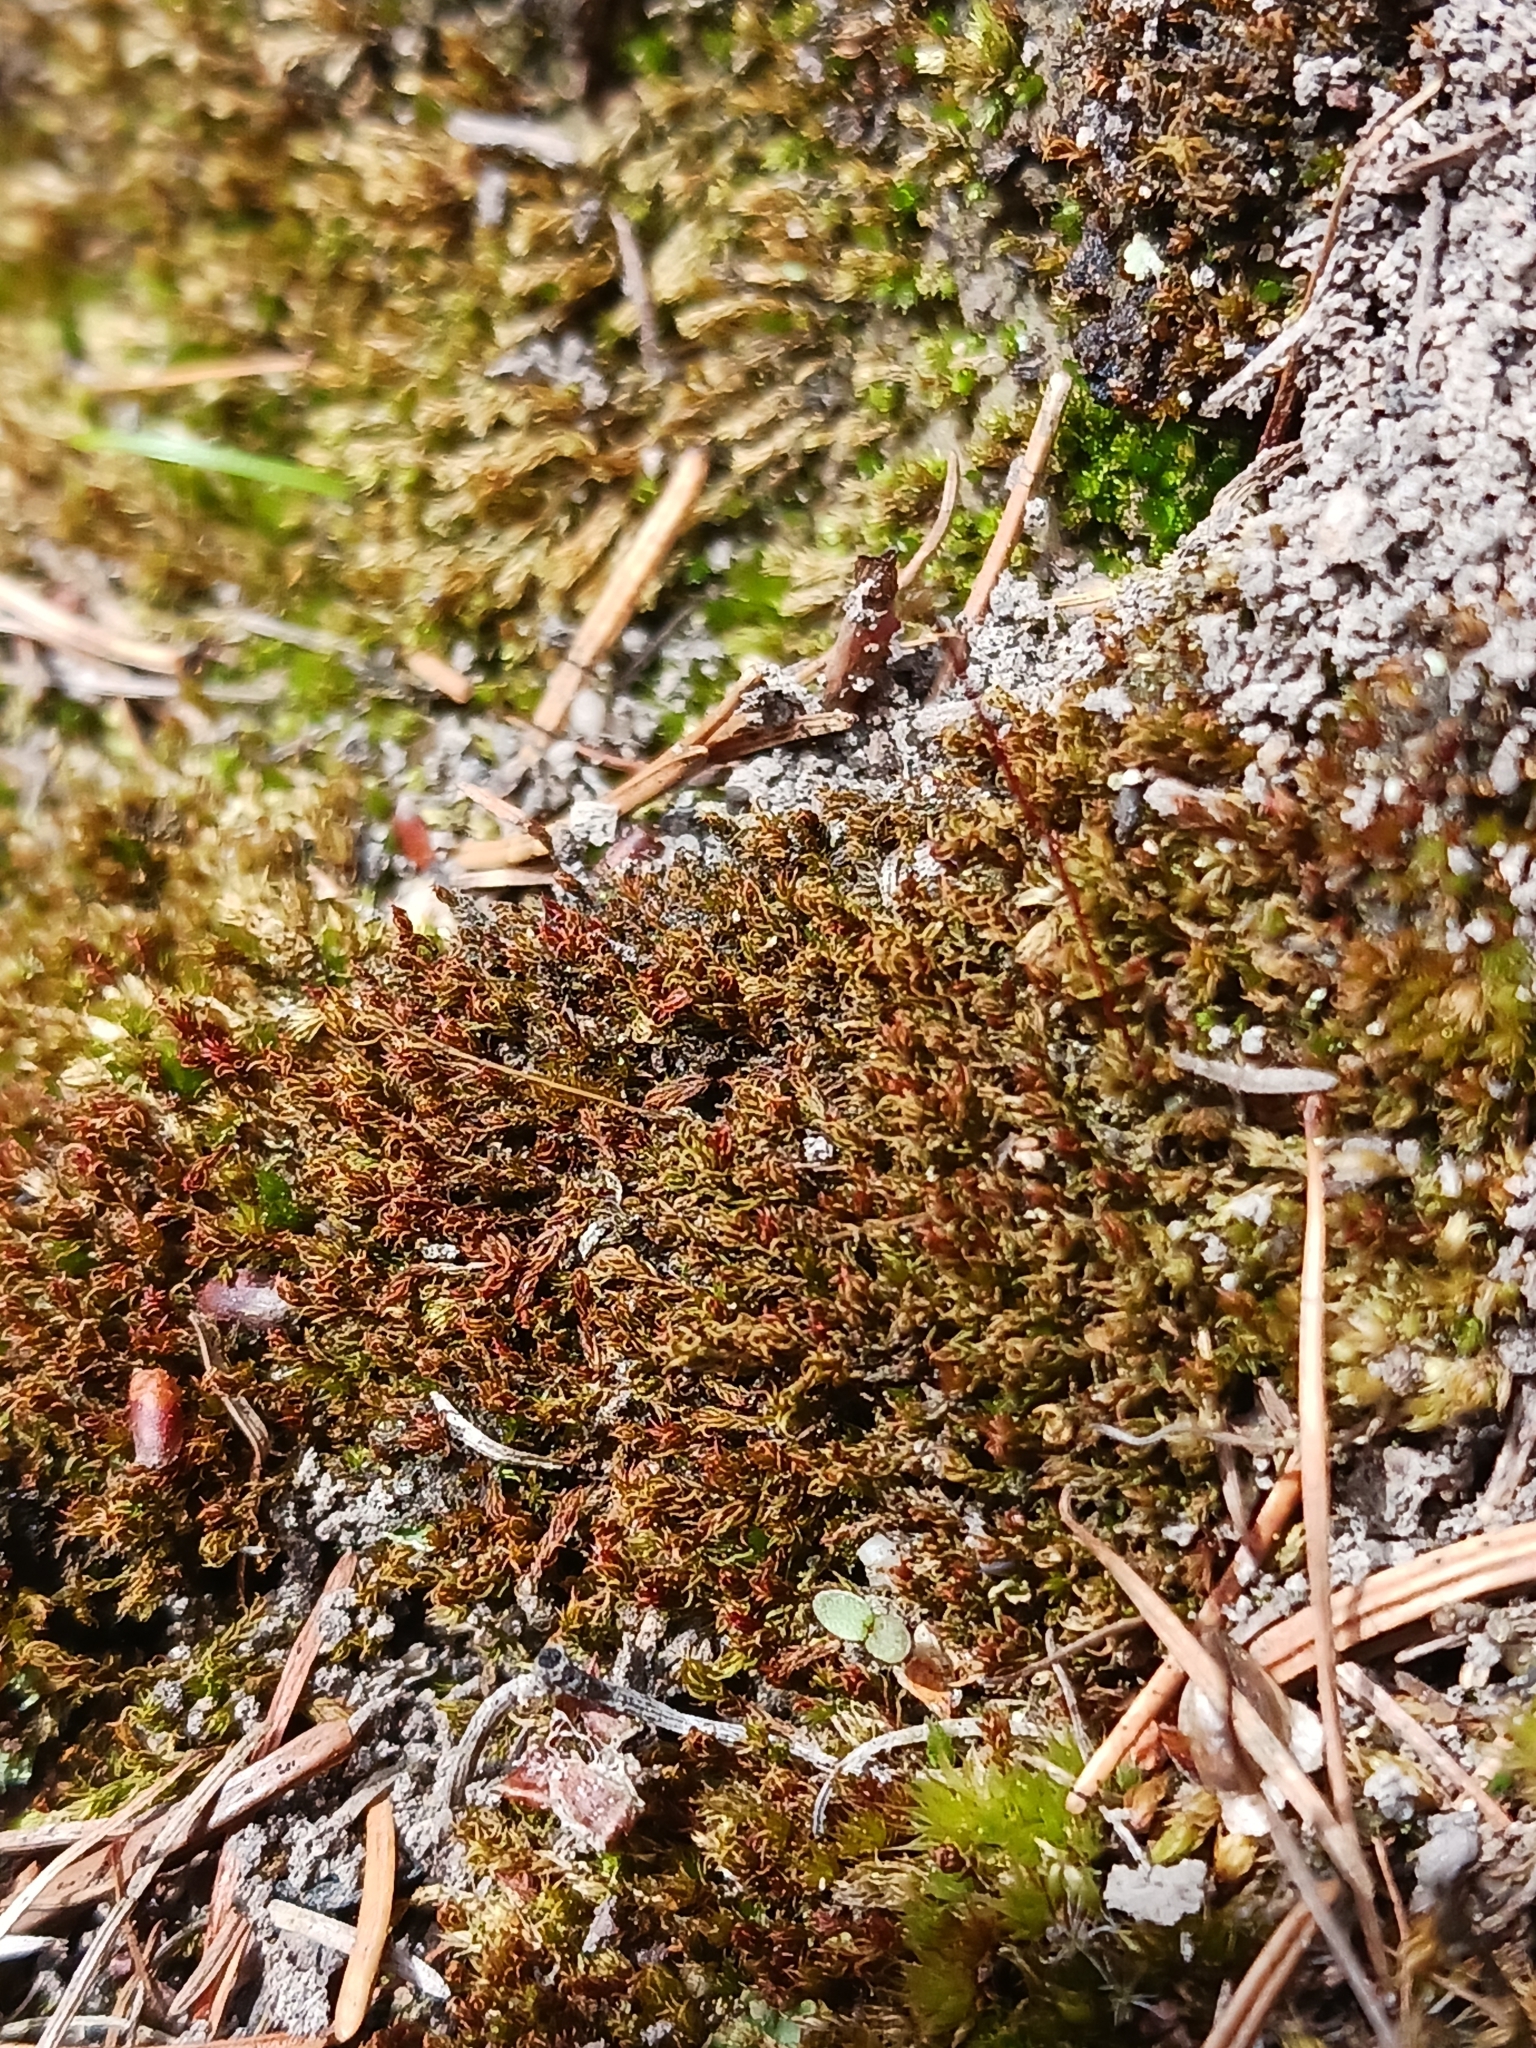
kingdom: Plantae
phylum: Bryophyta
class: Bryopsida
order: Dicranales
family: Ditrichaceae
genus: Ceratodon
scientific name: Ceratodon purpureus
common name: Redshank
